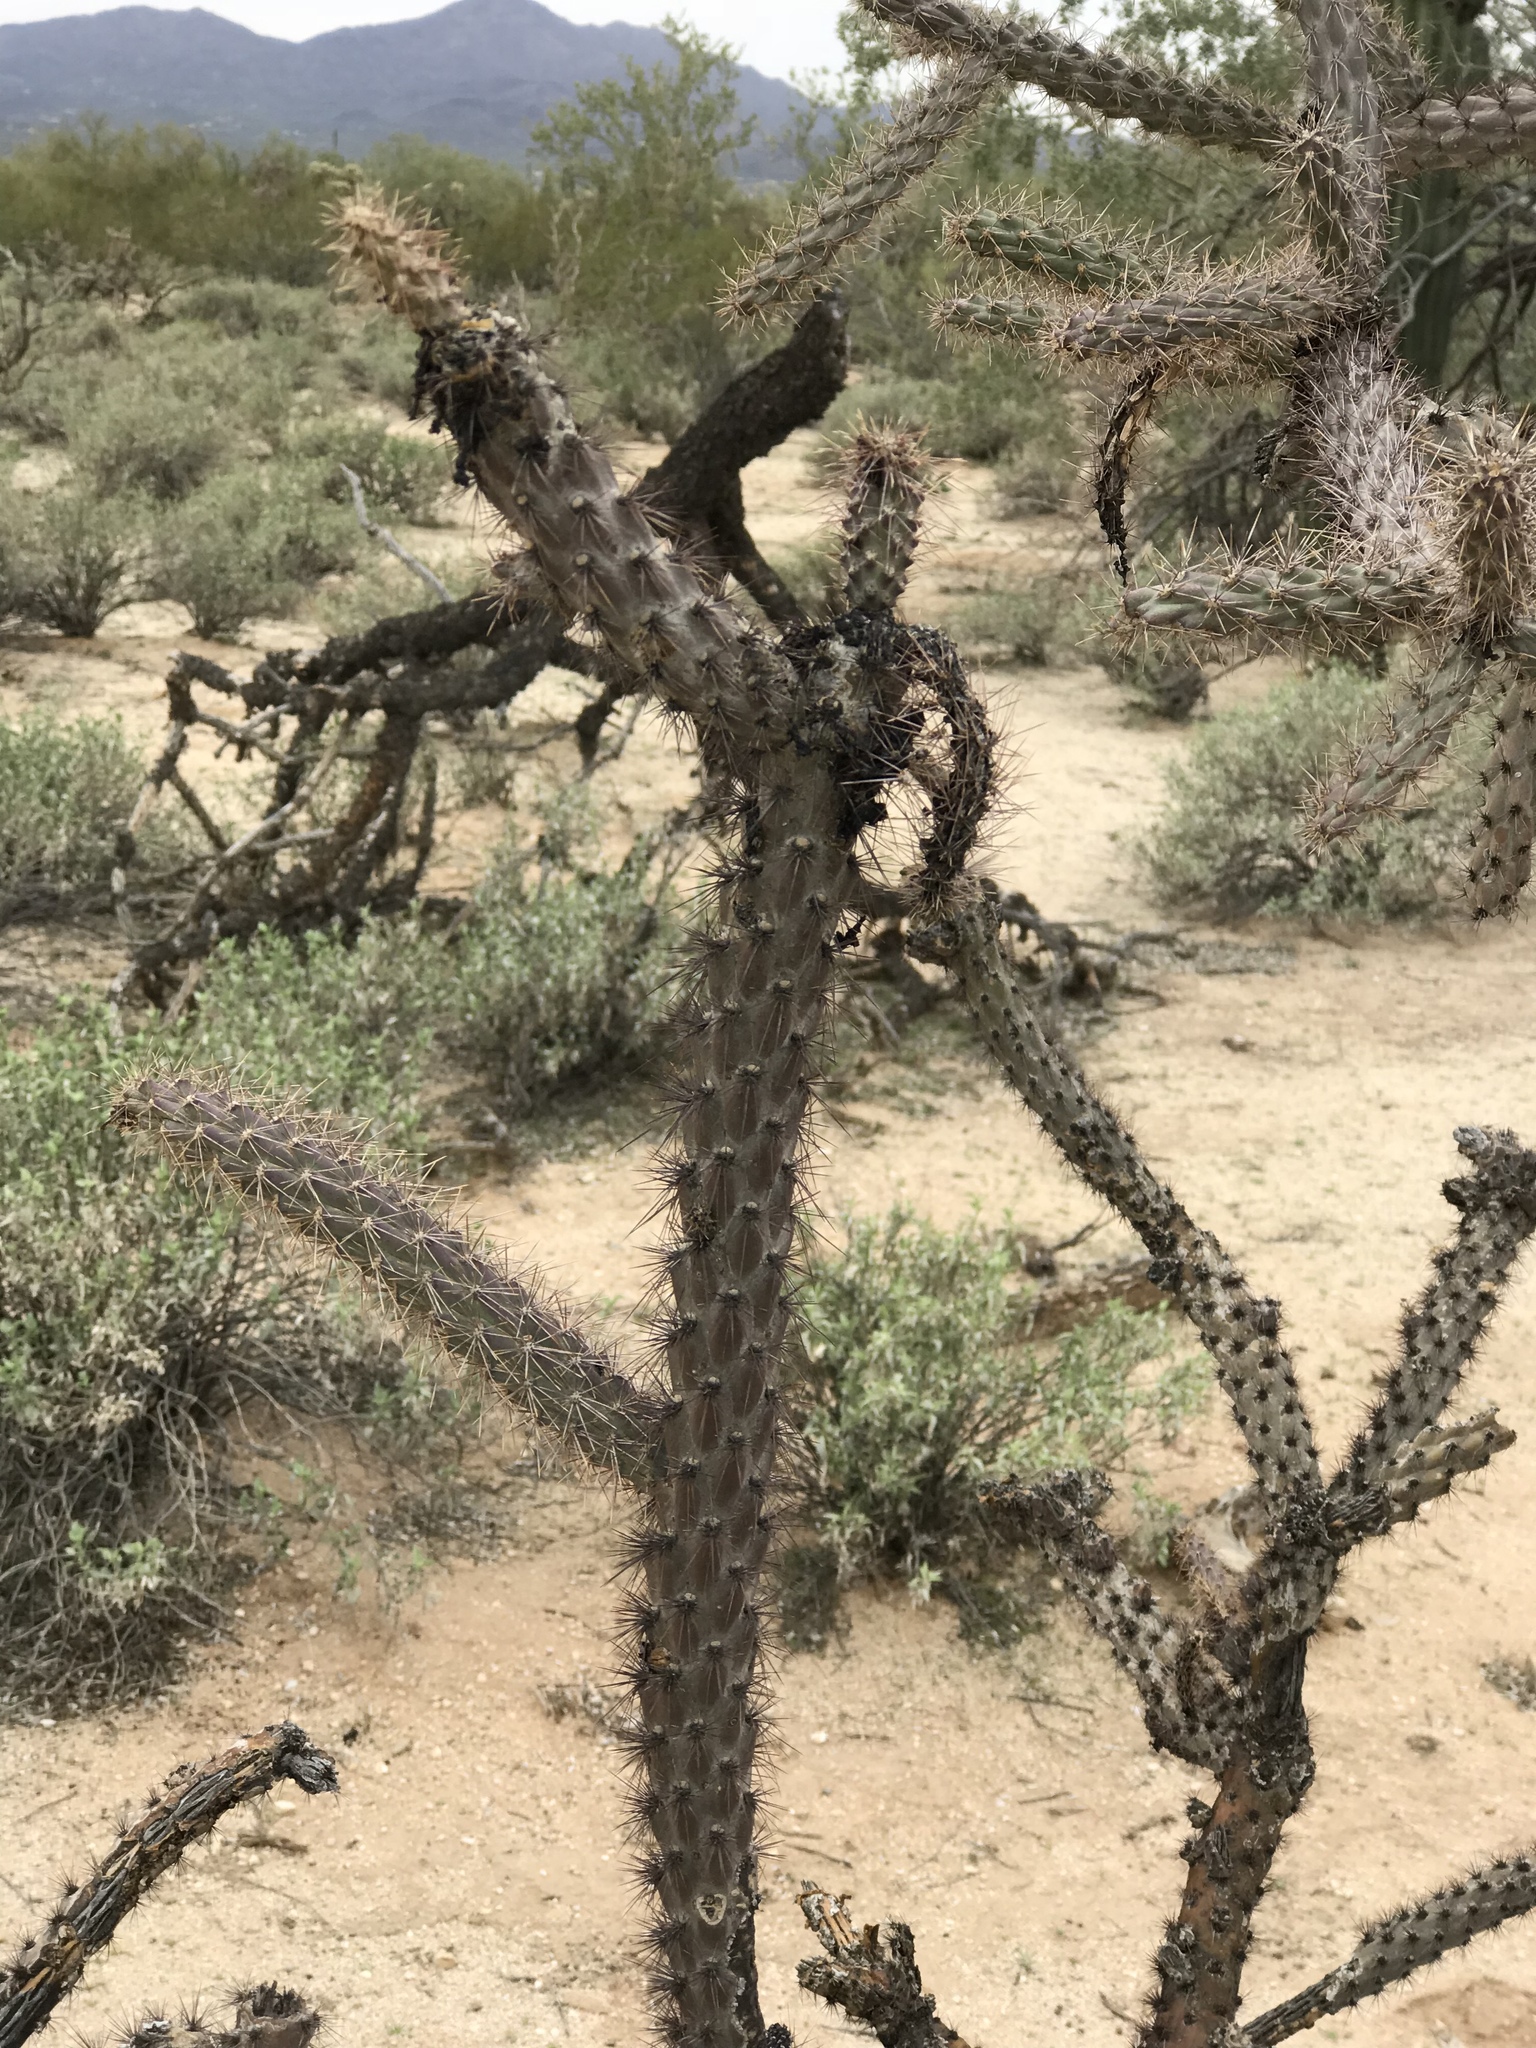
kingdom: Plantae
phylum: Tracheophyta
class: Magnoliopsida
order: Caryophyllales
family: Cactaceae
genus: Cylindropuntia
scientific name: Cylindropuntia thurberi
